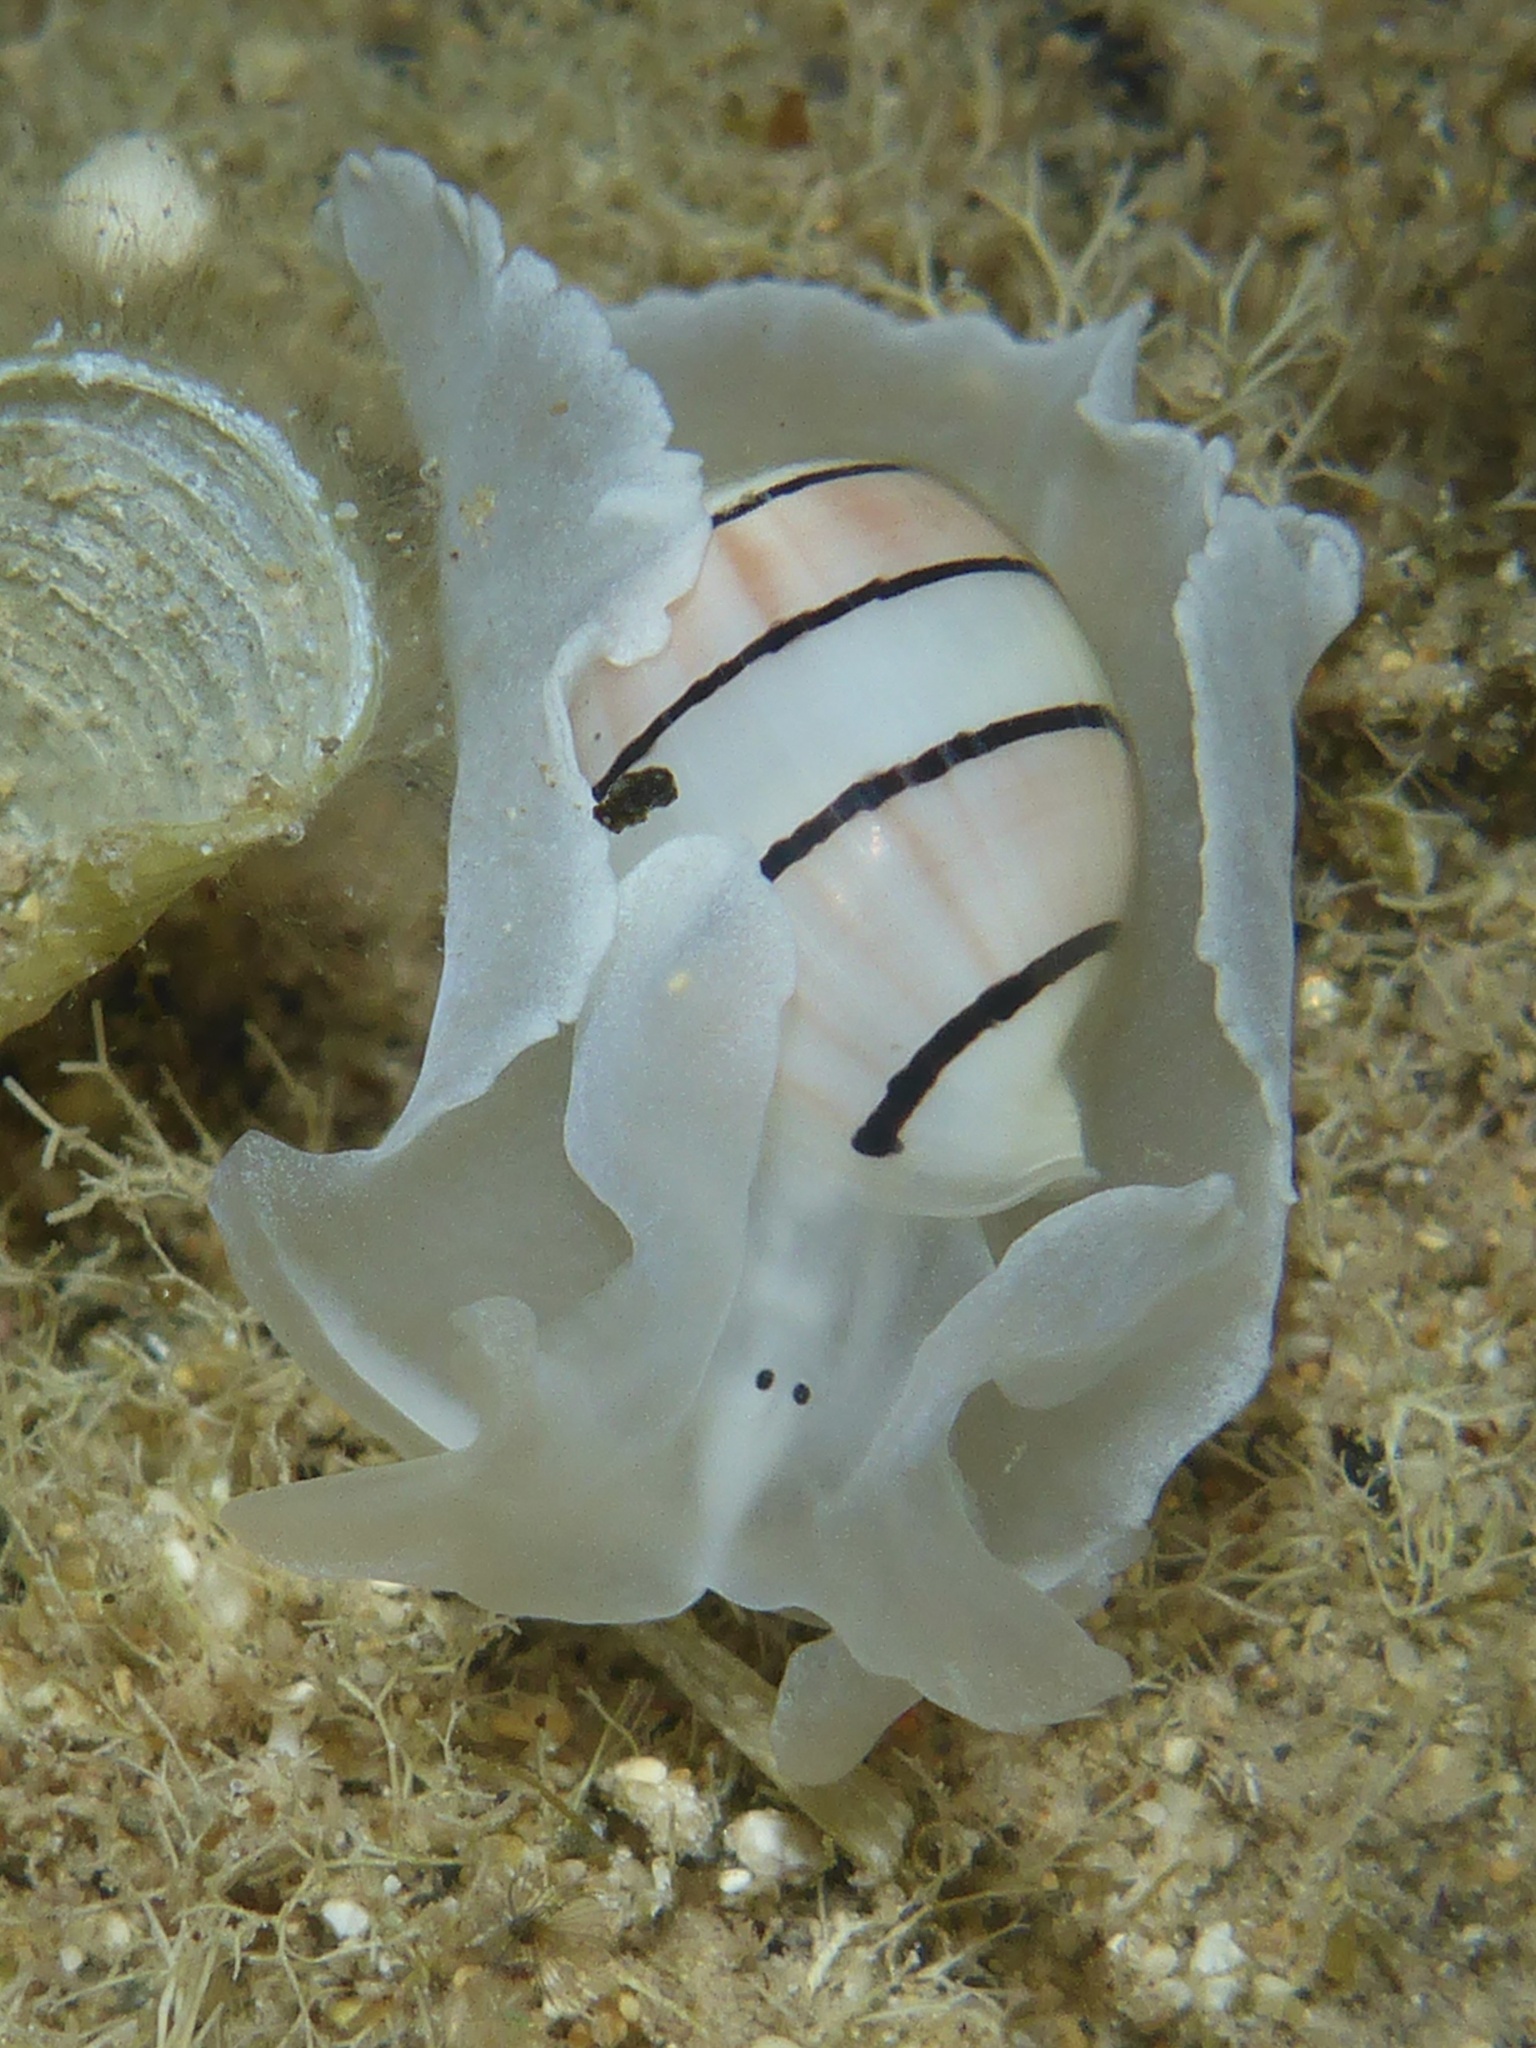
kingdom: Animalia
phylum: Mollusca
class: Gastropoda
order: Cephalaspidea
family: Aplustridae
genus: Aplustrum
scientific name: Aplustrum amplustre
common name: Royal paperbubble
